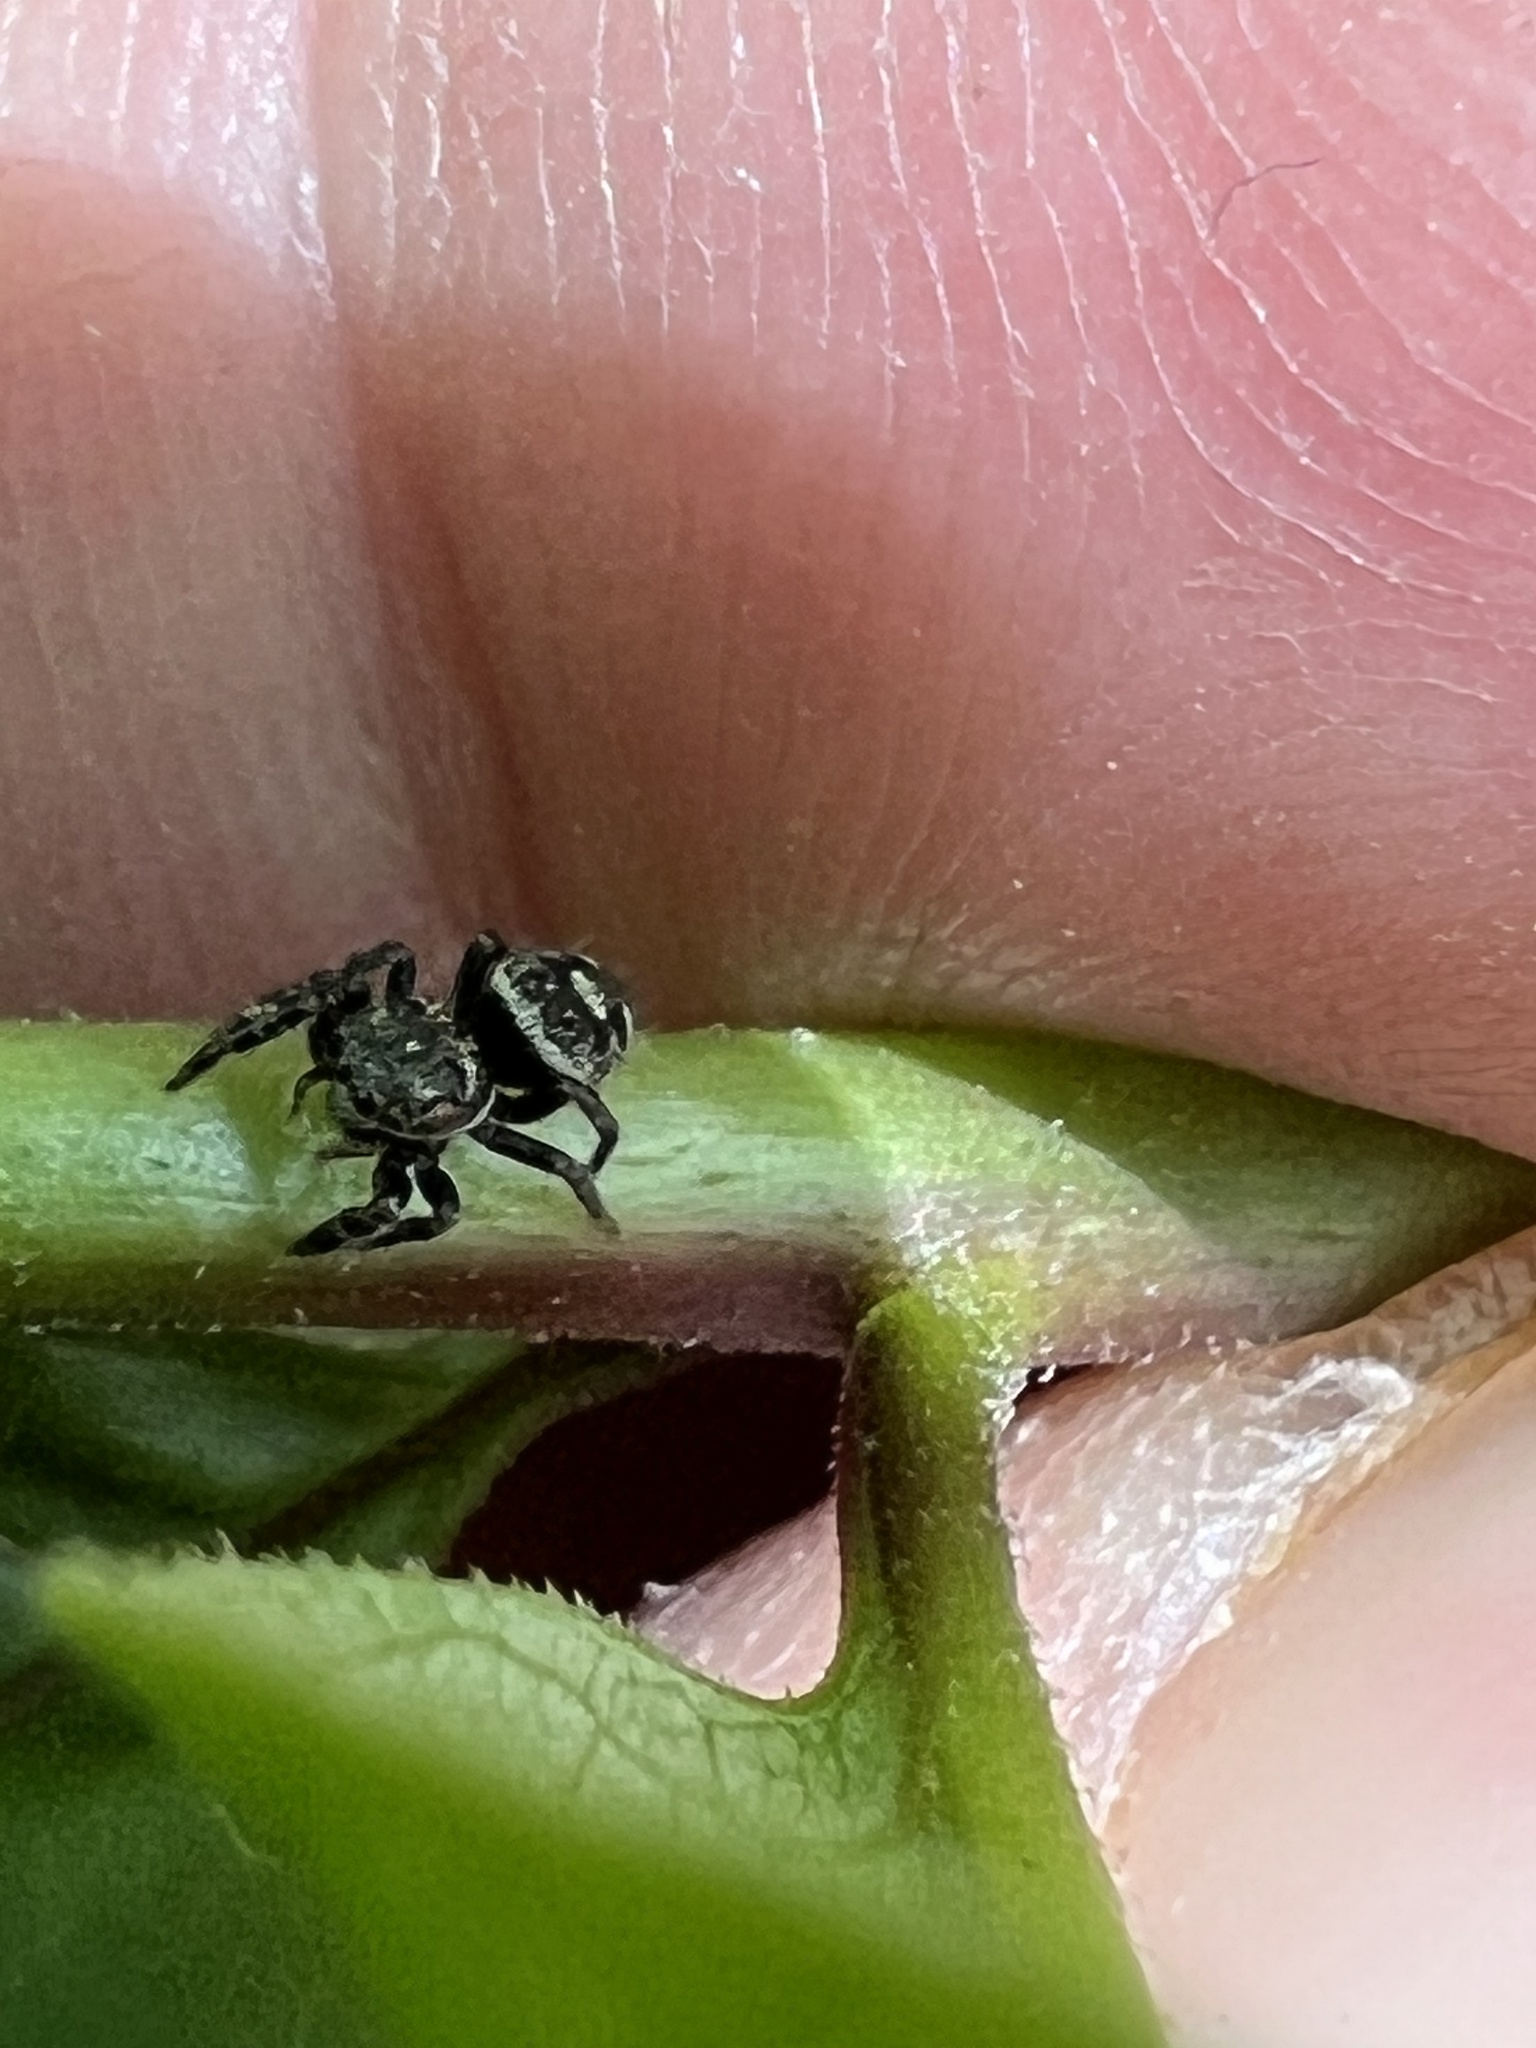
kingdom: Animalia
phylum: Arthropoda
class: Arachnida
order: Araneae
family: Salticidae
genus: Phidippus
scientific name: Phidippus putnami
